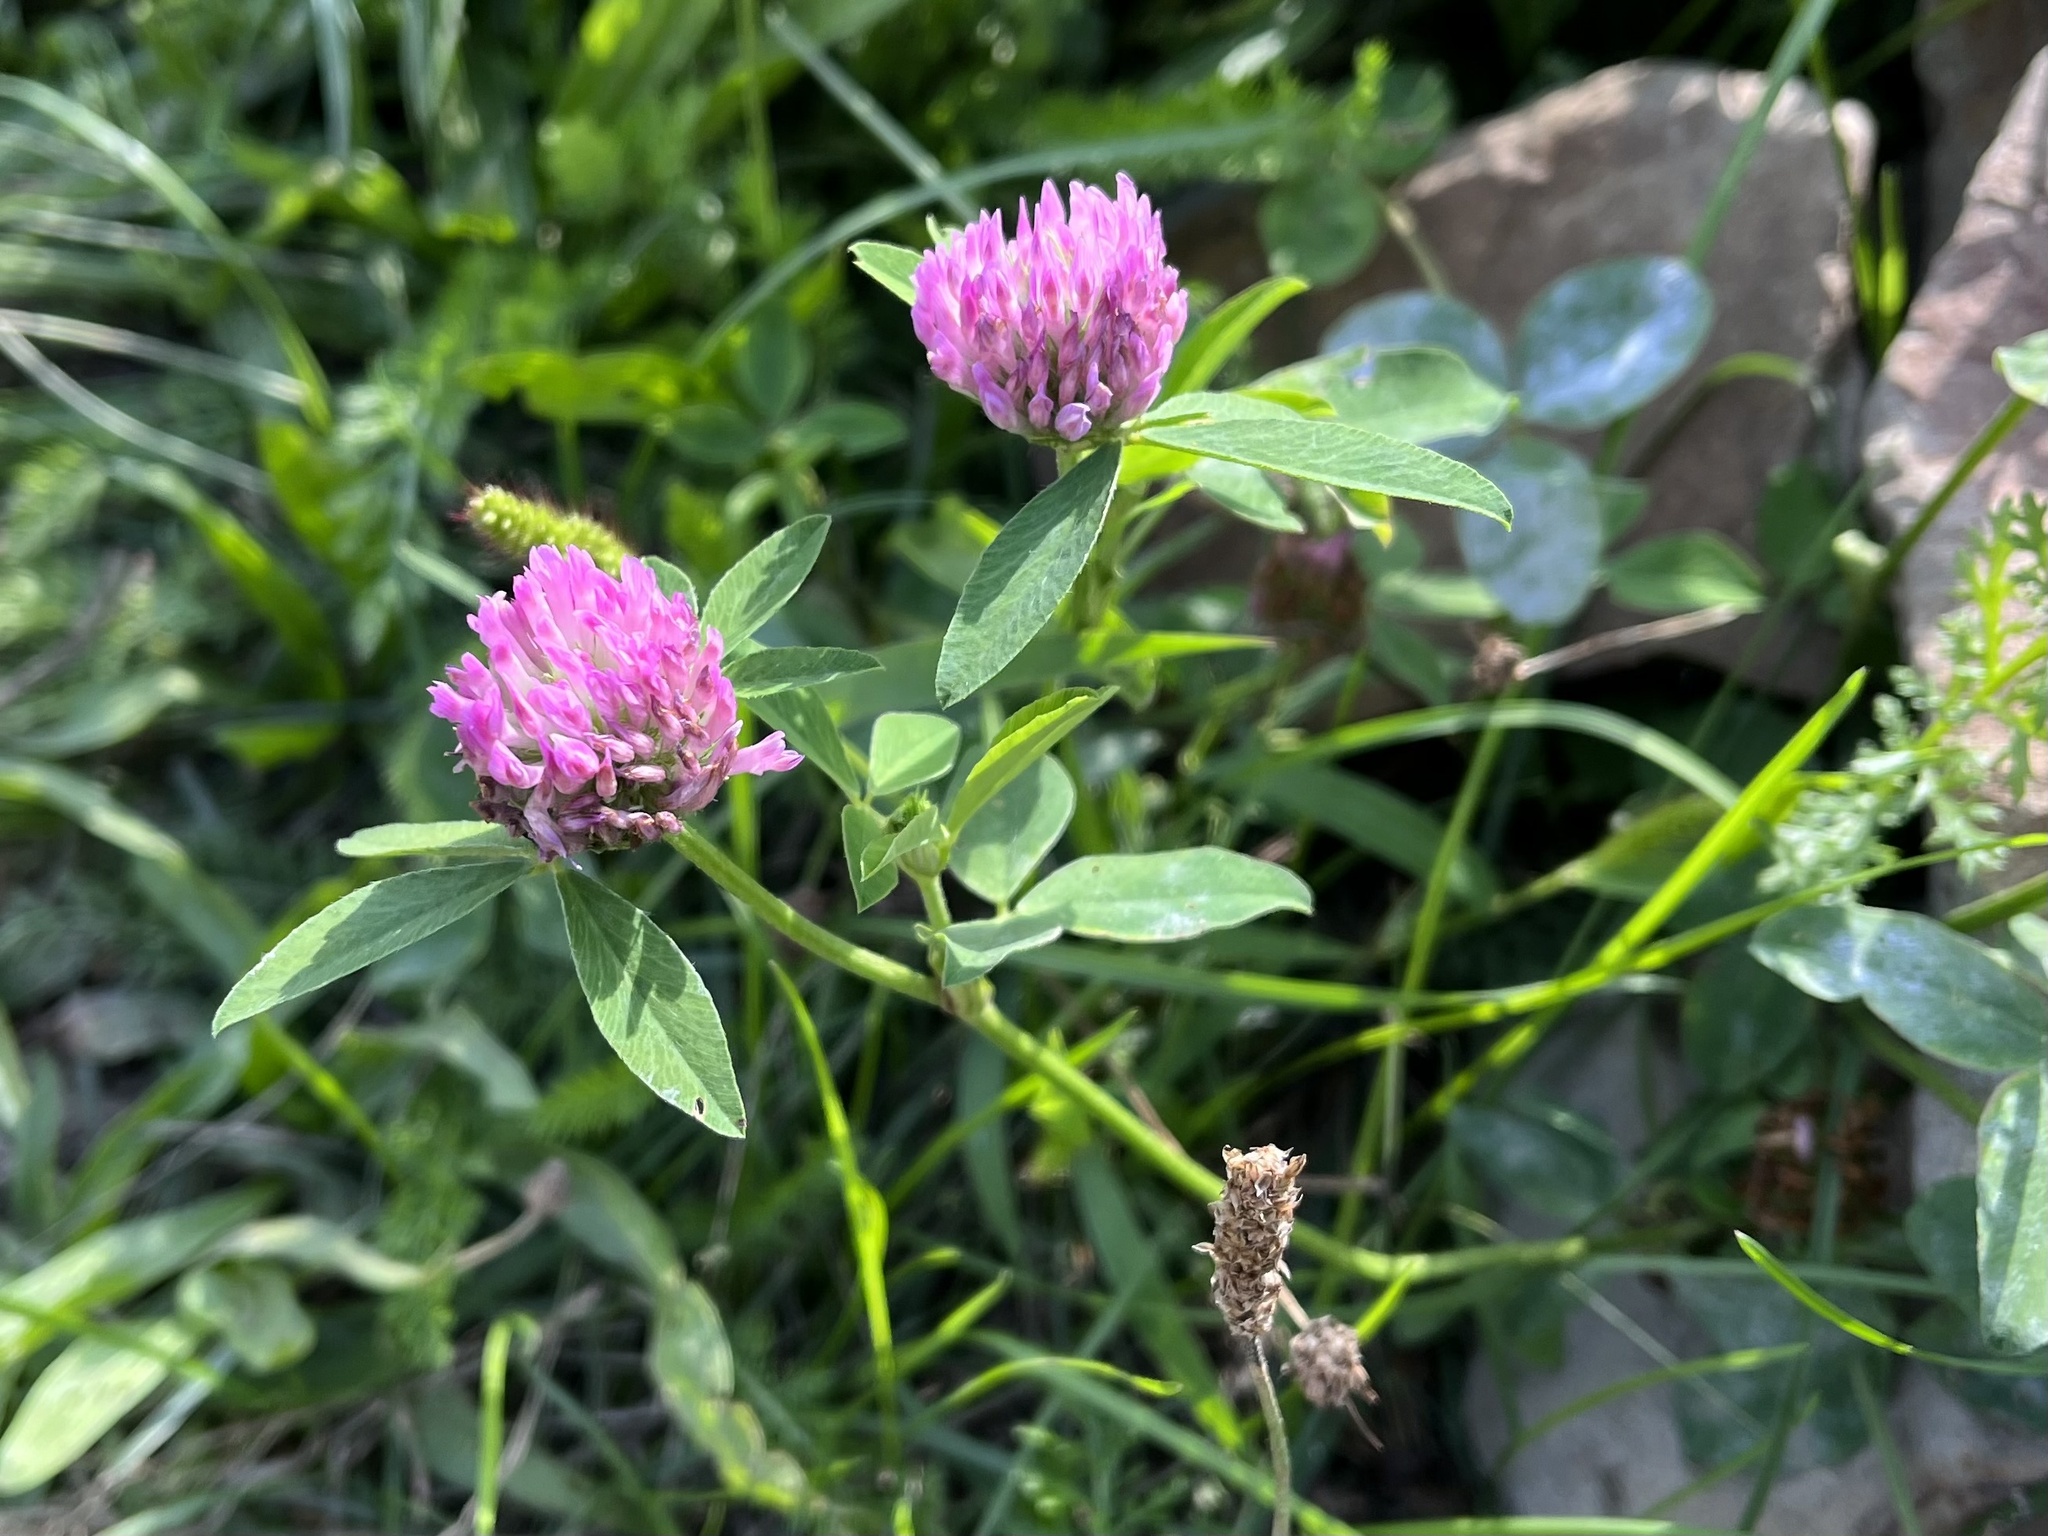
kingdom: Plantae
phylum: Tracheophyta
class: Magnoliopsida
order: Fabales
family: Fabaceae
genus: Trifolium
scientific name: Trifolium pratense
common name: Red clover
